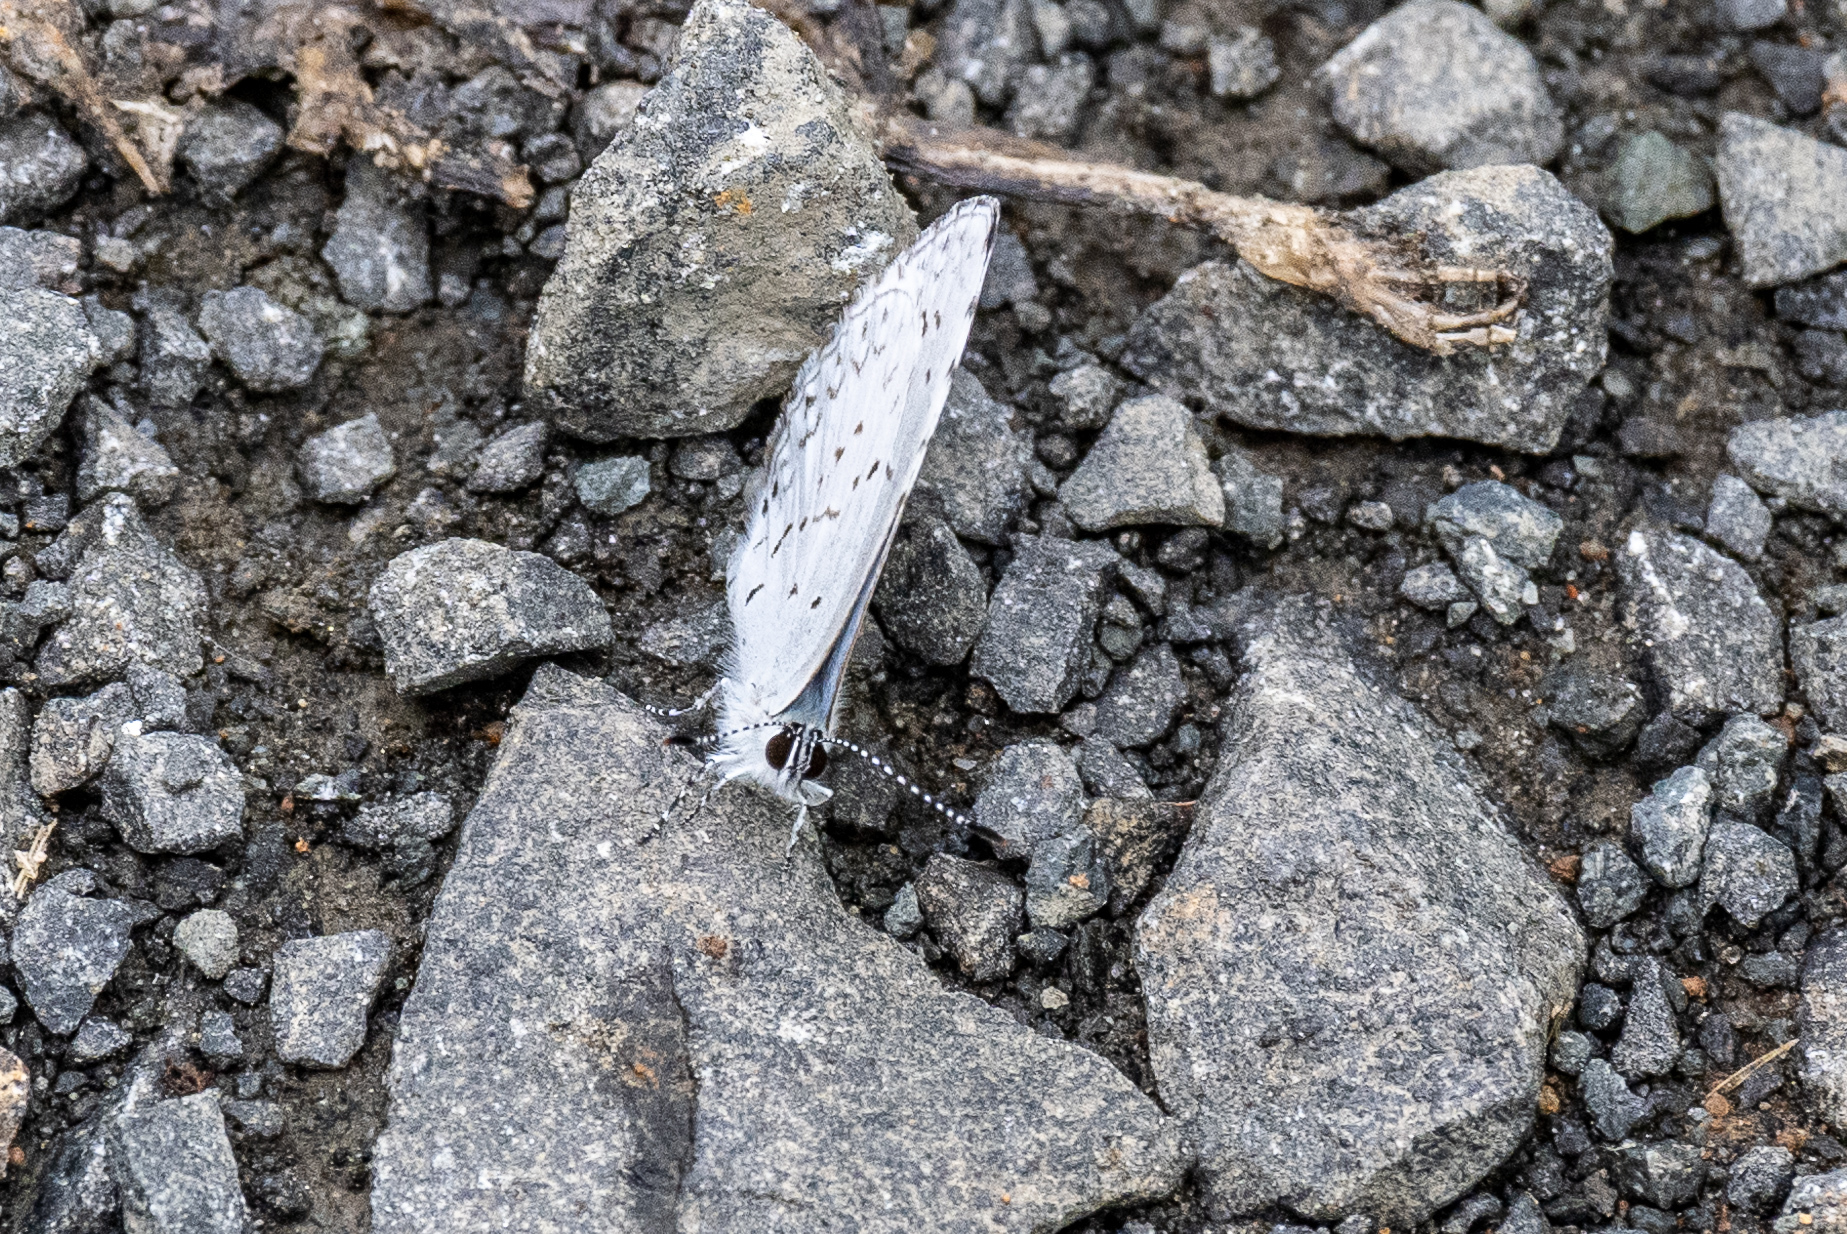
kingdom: Animalia
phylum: Arthropoda
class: Insecta
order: Lepidoptera
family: Lycaenidae
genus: Cyaniris
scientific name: Cyaniris neglecta
